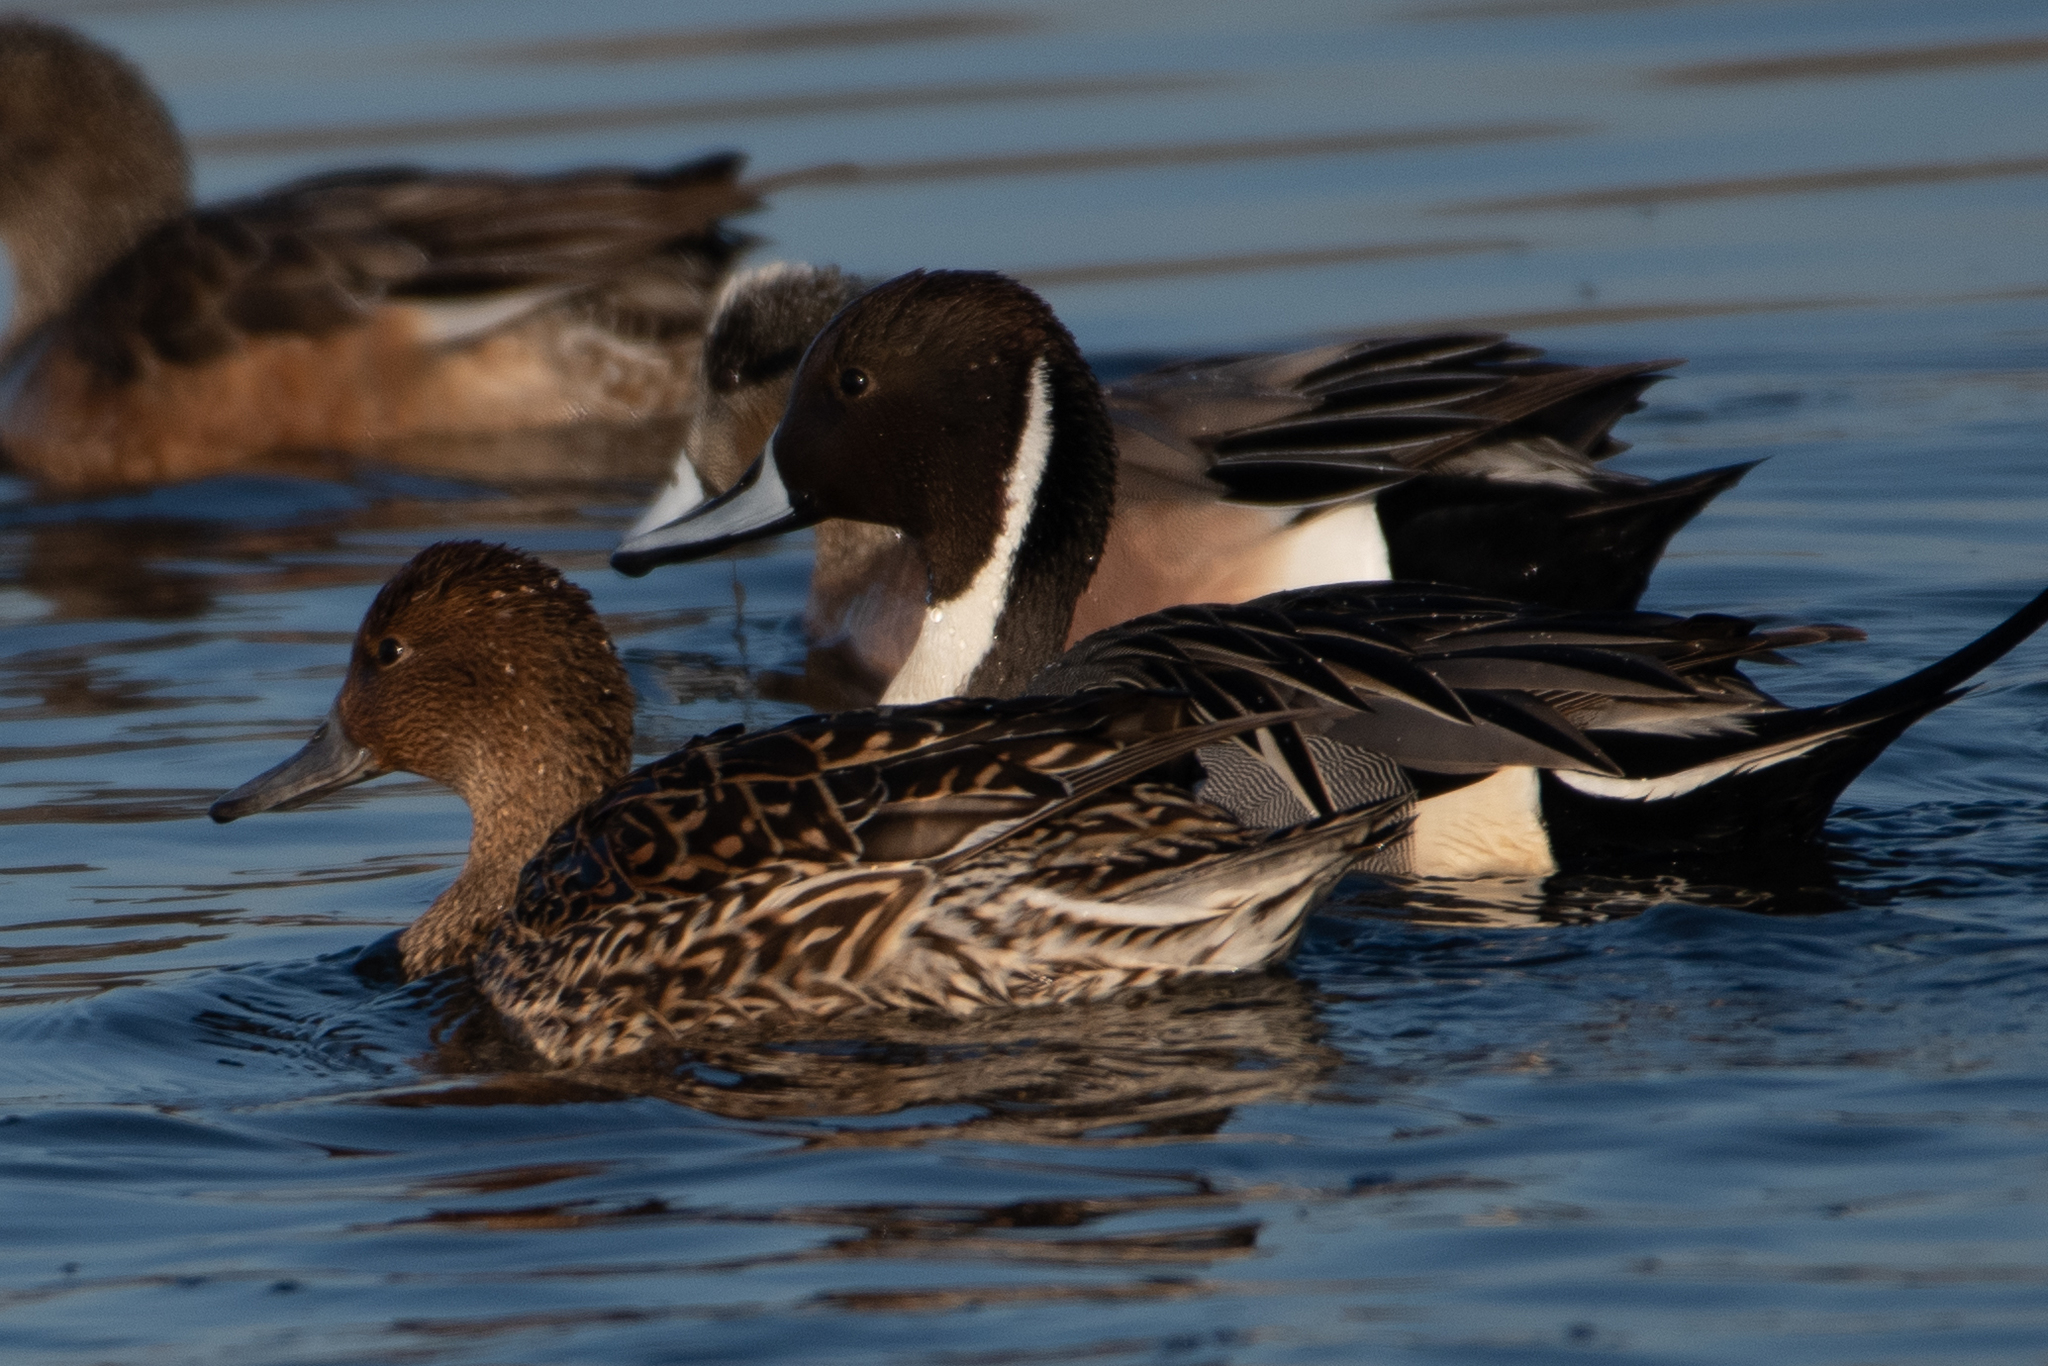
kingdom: Animalia
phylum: Chordata
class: Aves
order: Anseriformes
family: Anatidae
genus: Anas
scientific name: Anas acuta
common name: Northern pintail
